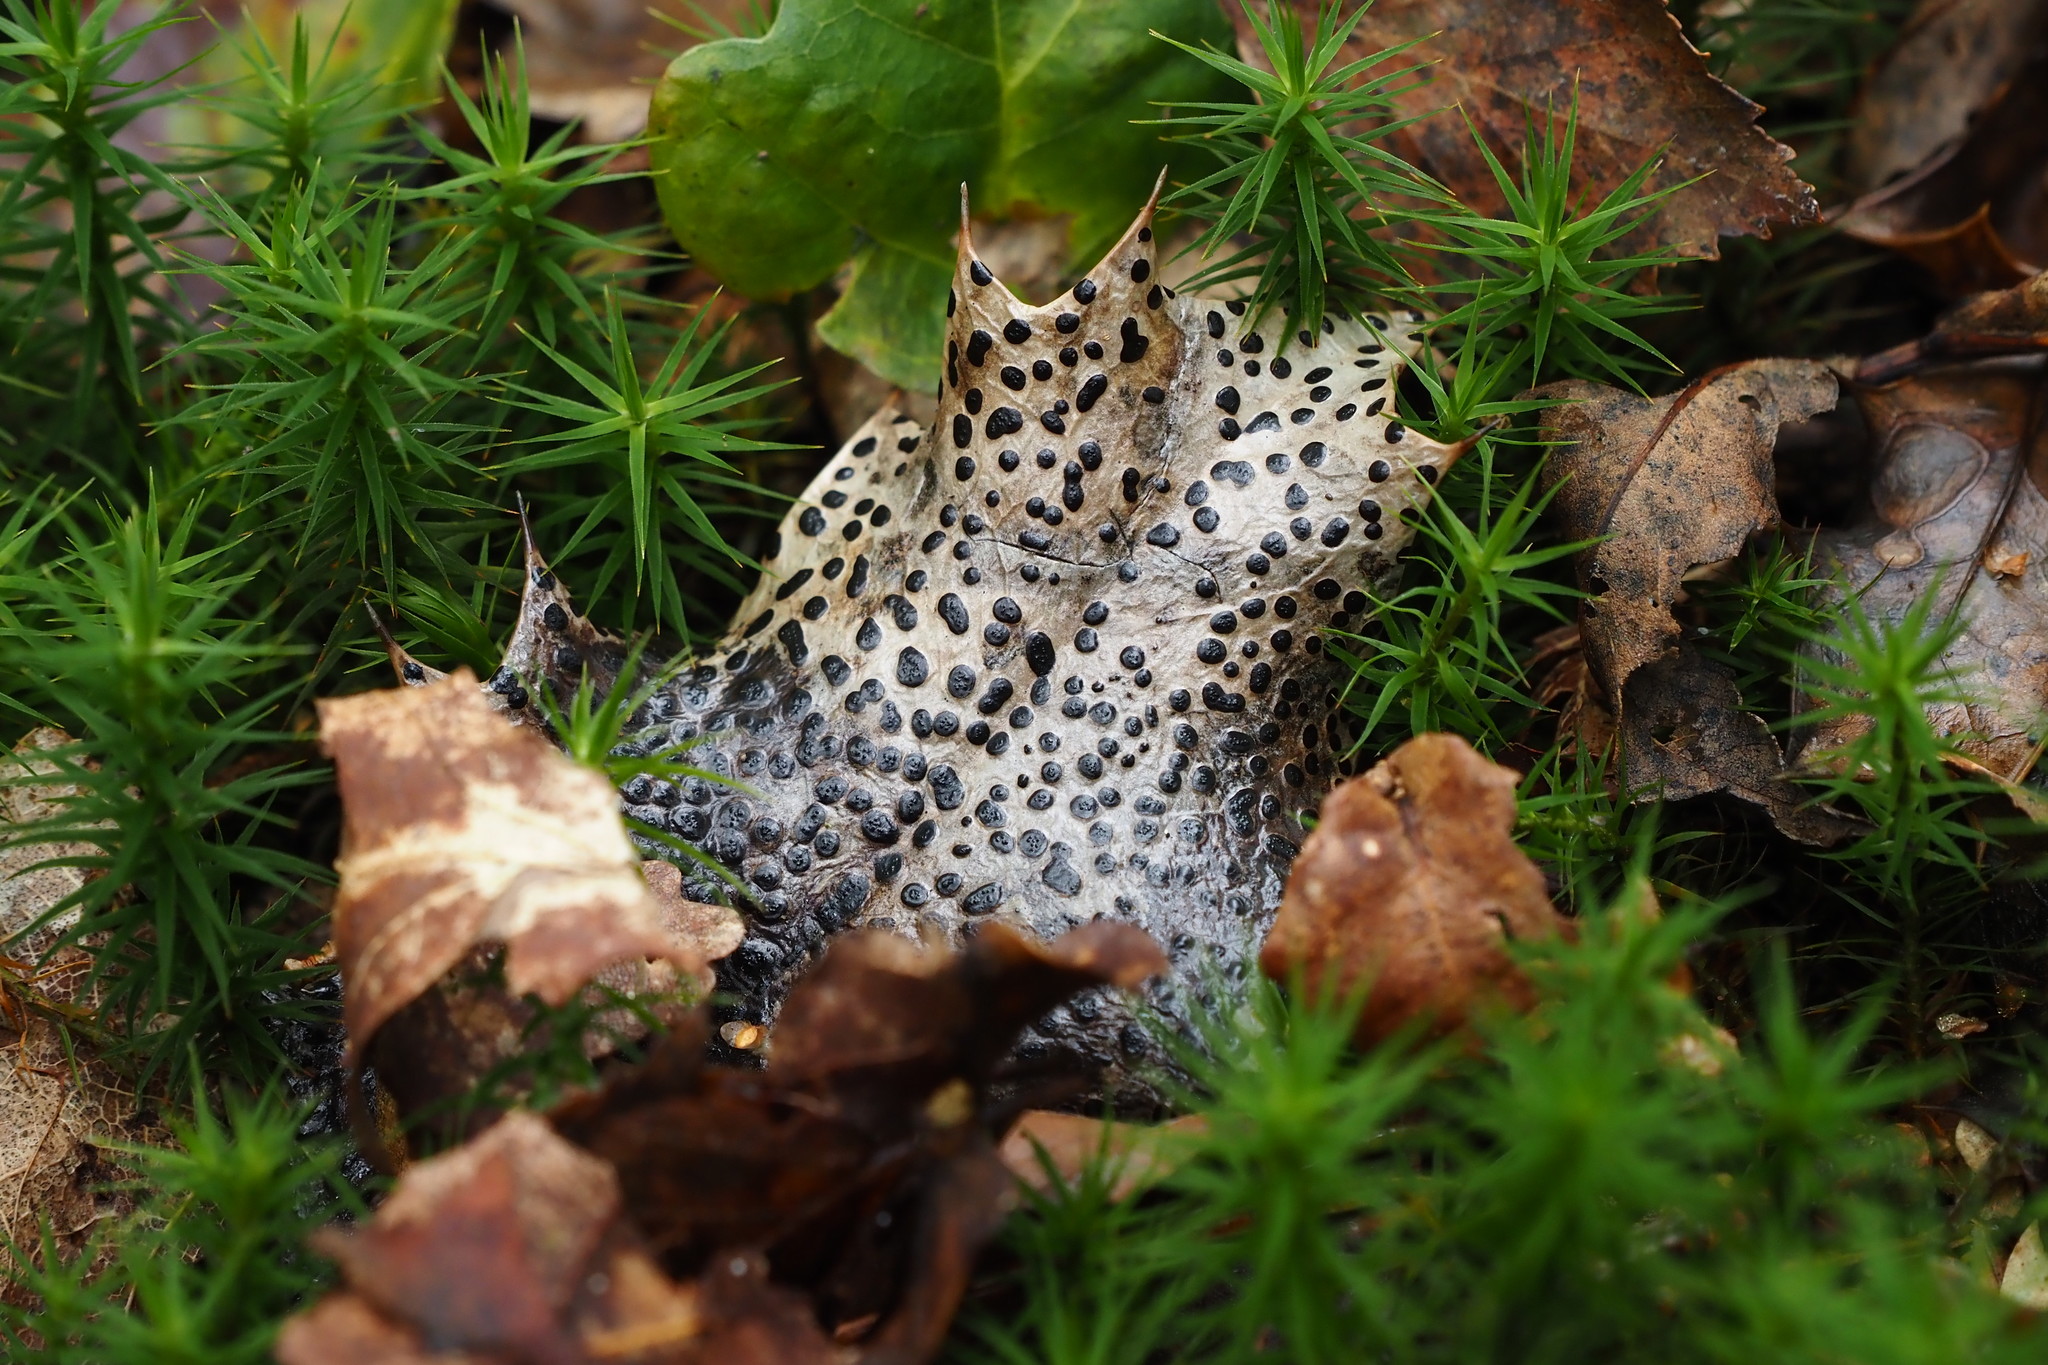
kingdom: Fungi
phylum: Ascomycota
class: Leotiomycetes
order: Helotiales
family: Cenangiaceae
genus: Trochila
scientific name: Trochila ilicina
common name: Holly speckle
